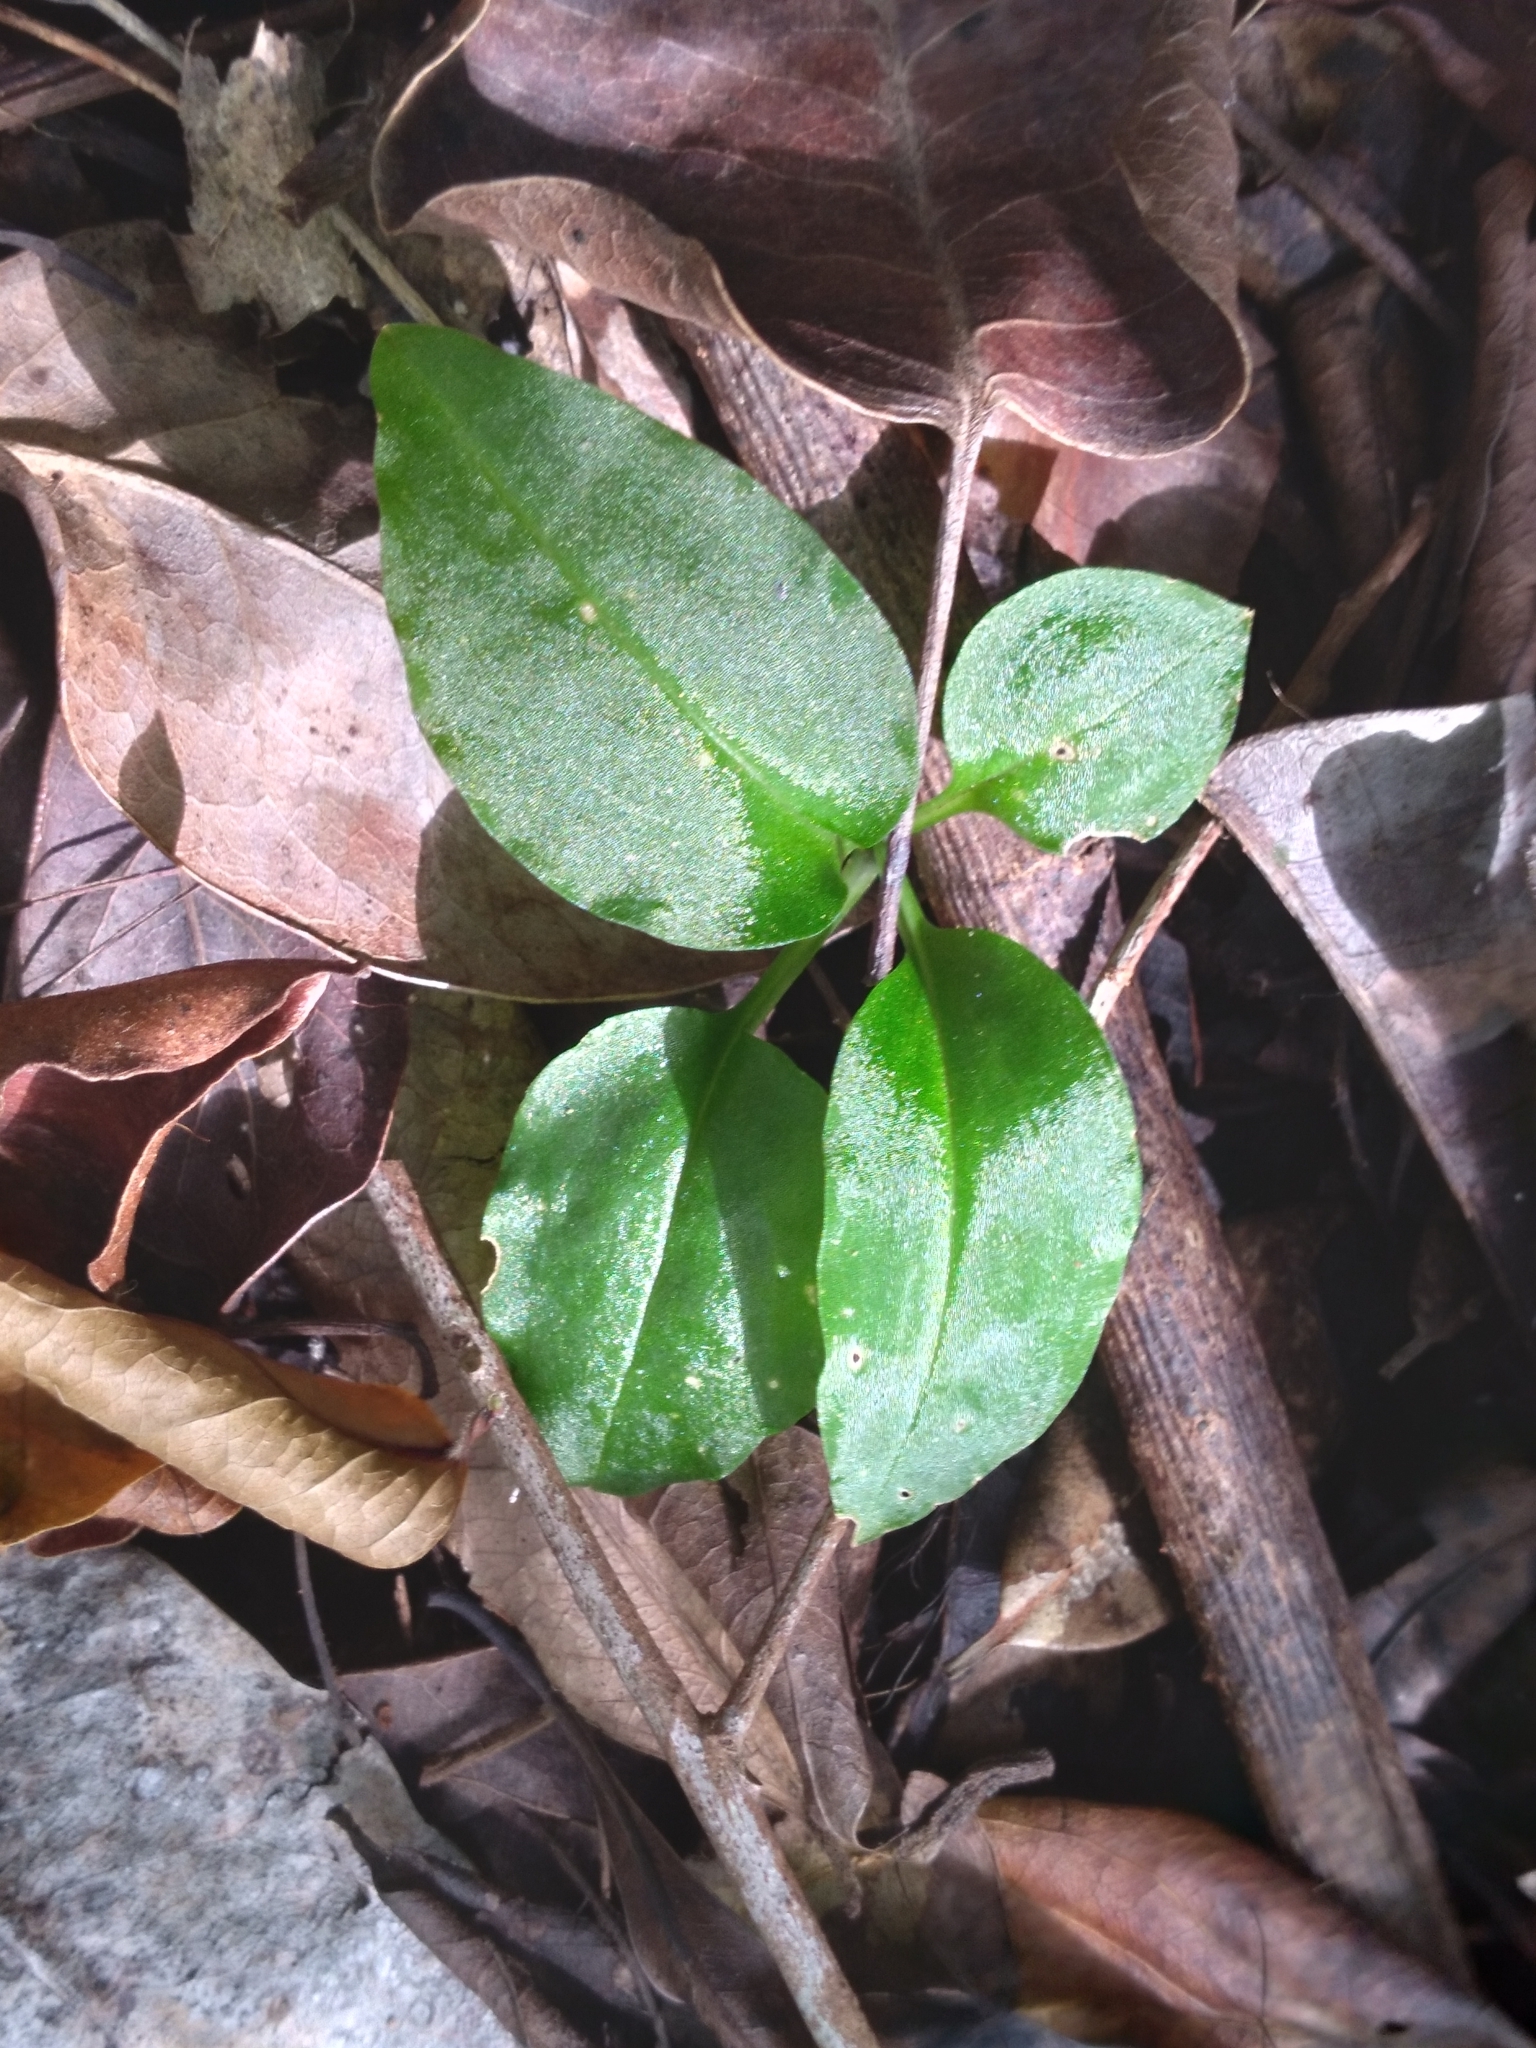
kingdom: Plantae
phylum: Tracheophyta
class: Liliopsida
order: Asparagales
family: Orchidaceae
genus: Beloglottis
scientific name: Beloglottis costaricensis
